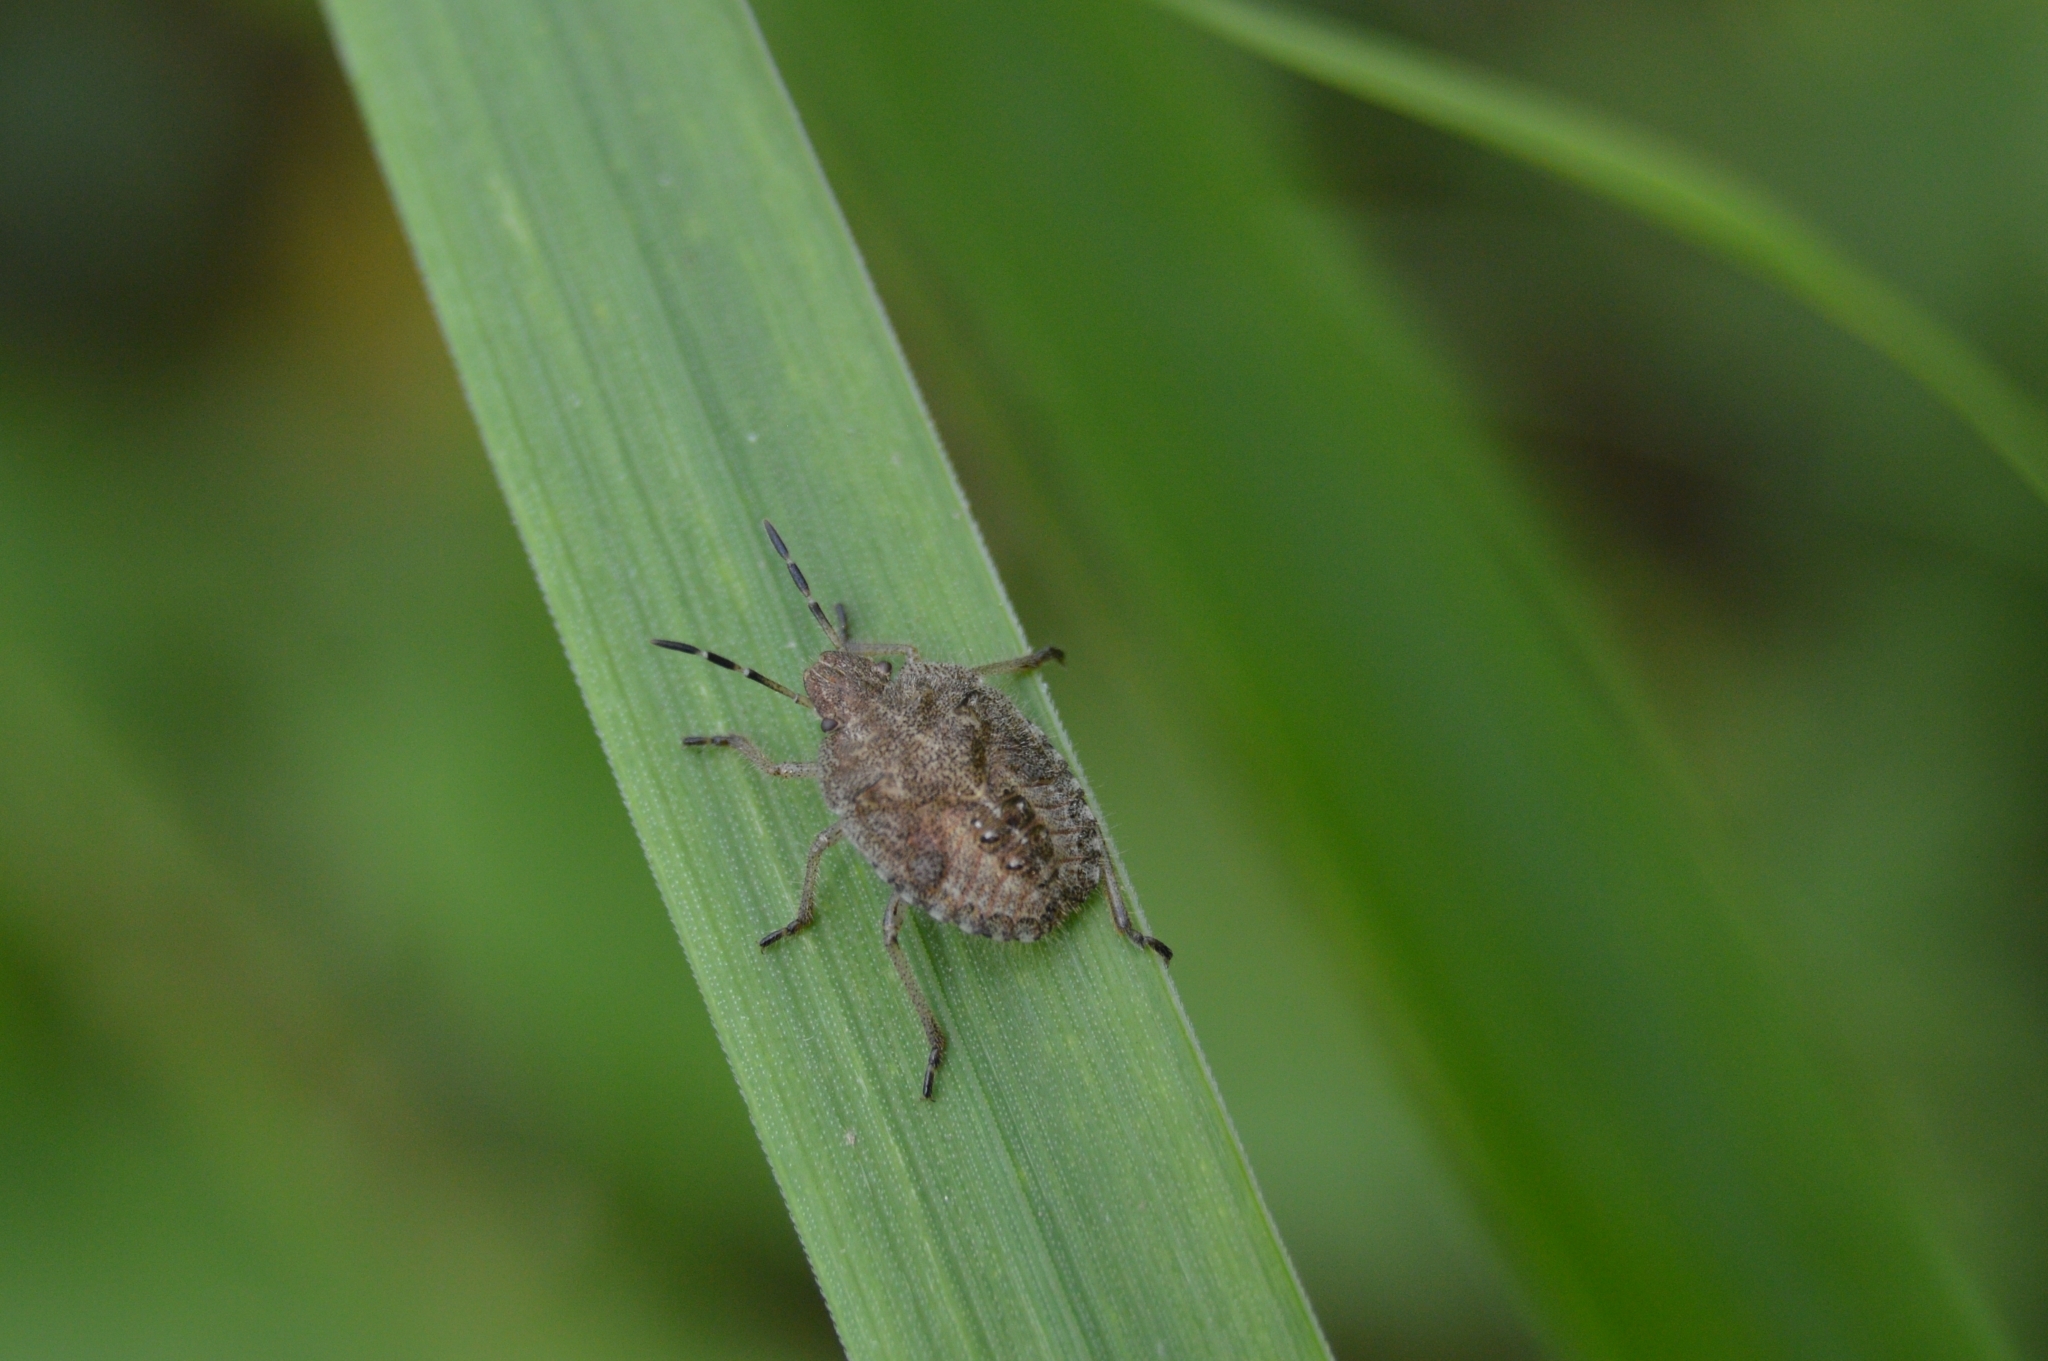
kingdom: Animalia
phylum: Arthropoda
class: Insecta
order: Hemiptera
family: Pentatomidae
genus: Dolycoris
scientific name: Dolycoris baccarum
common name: Sloe bug
